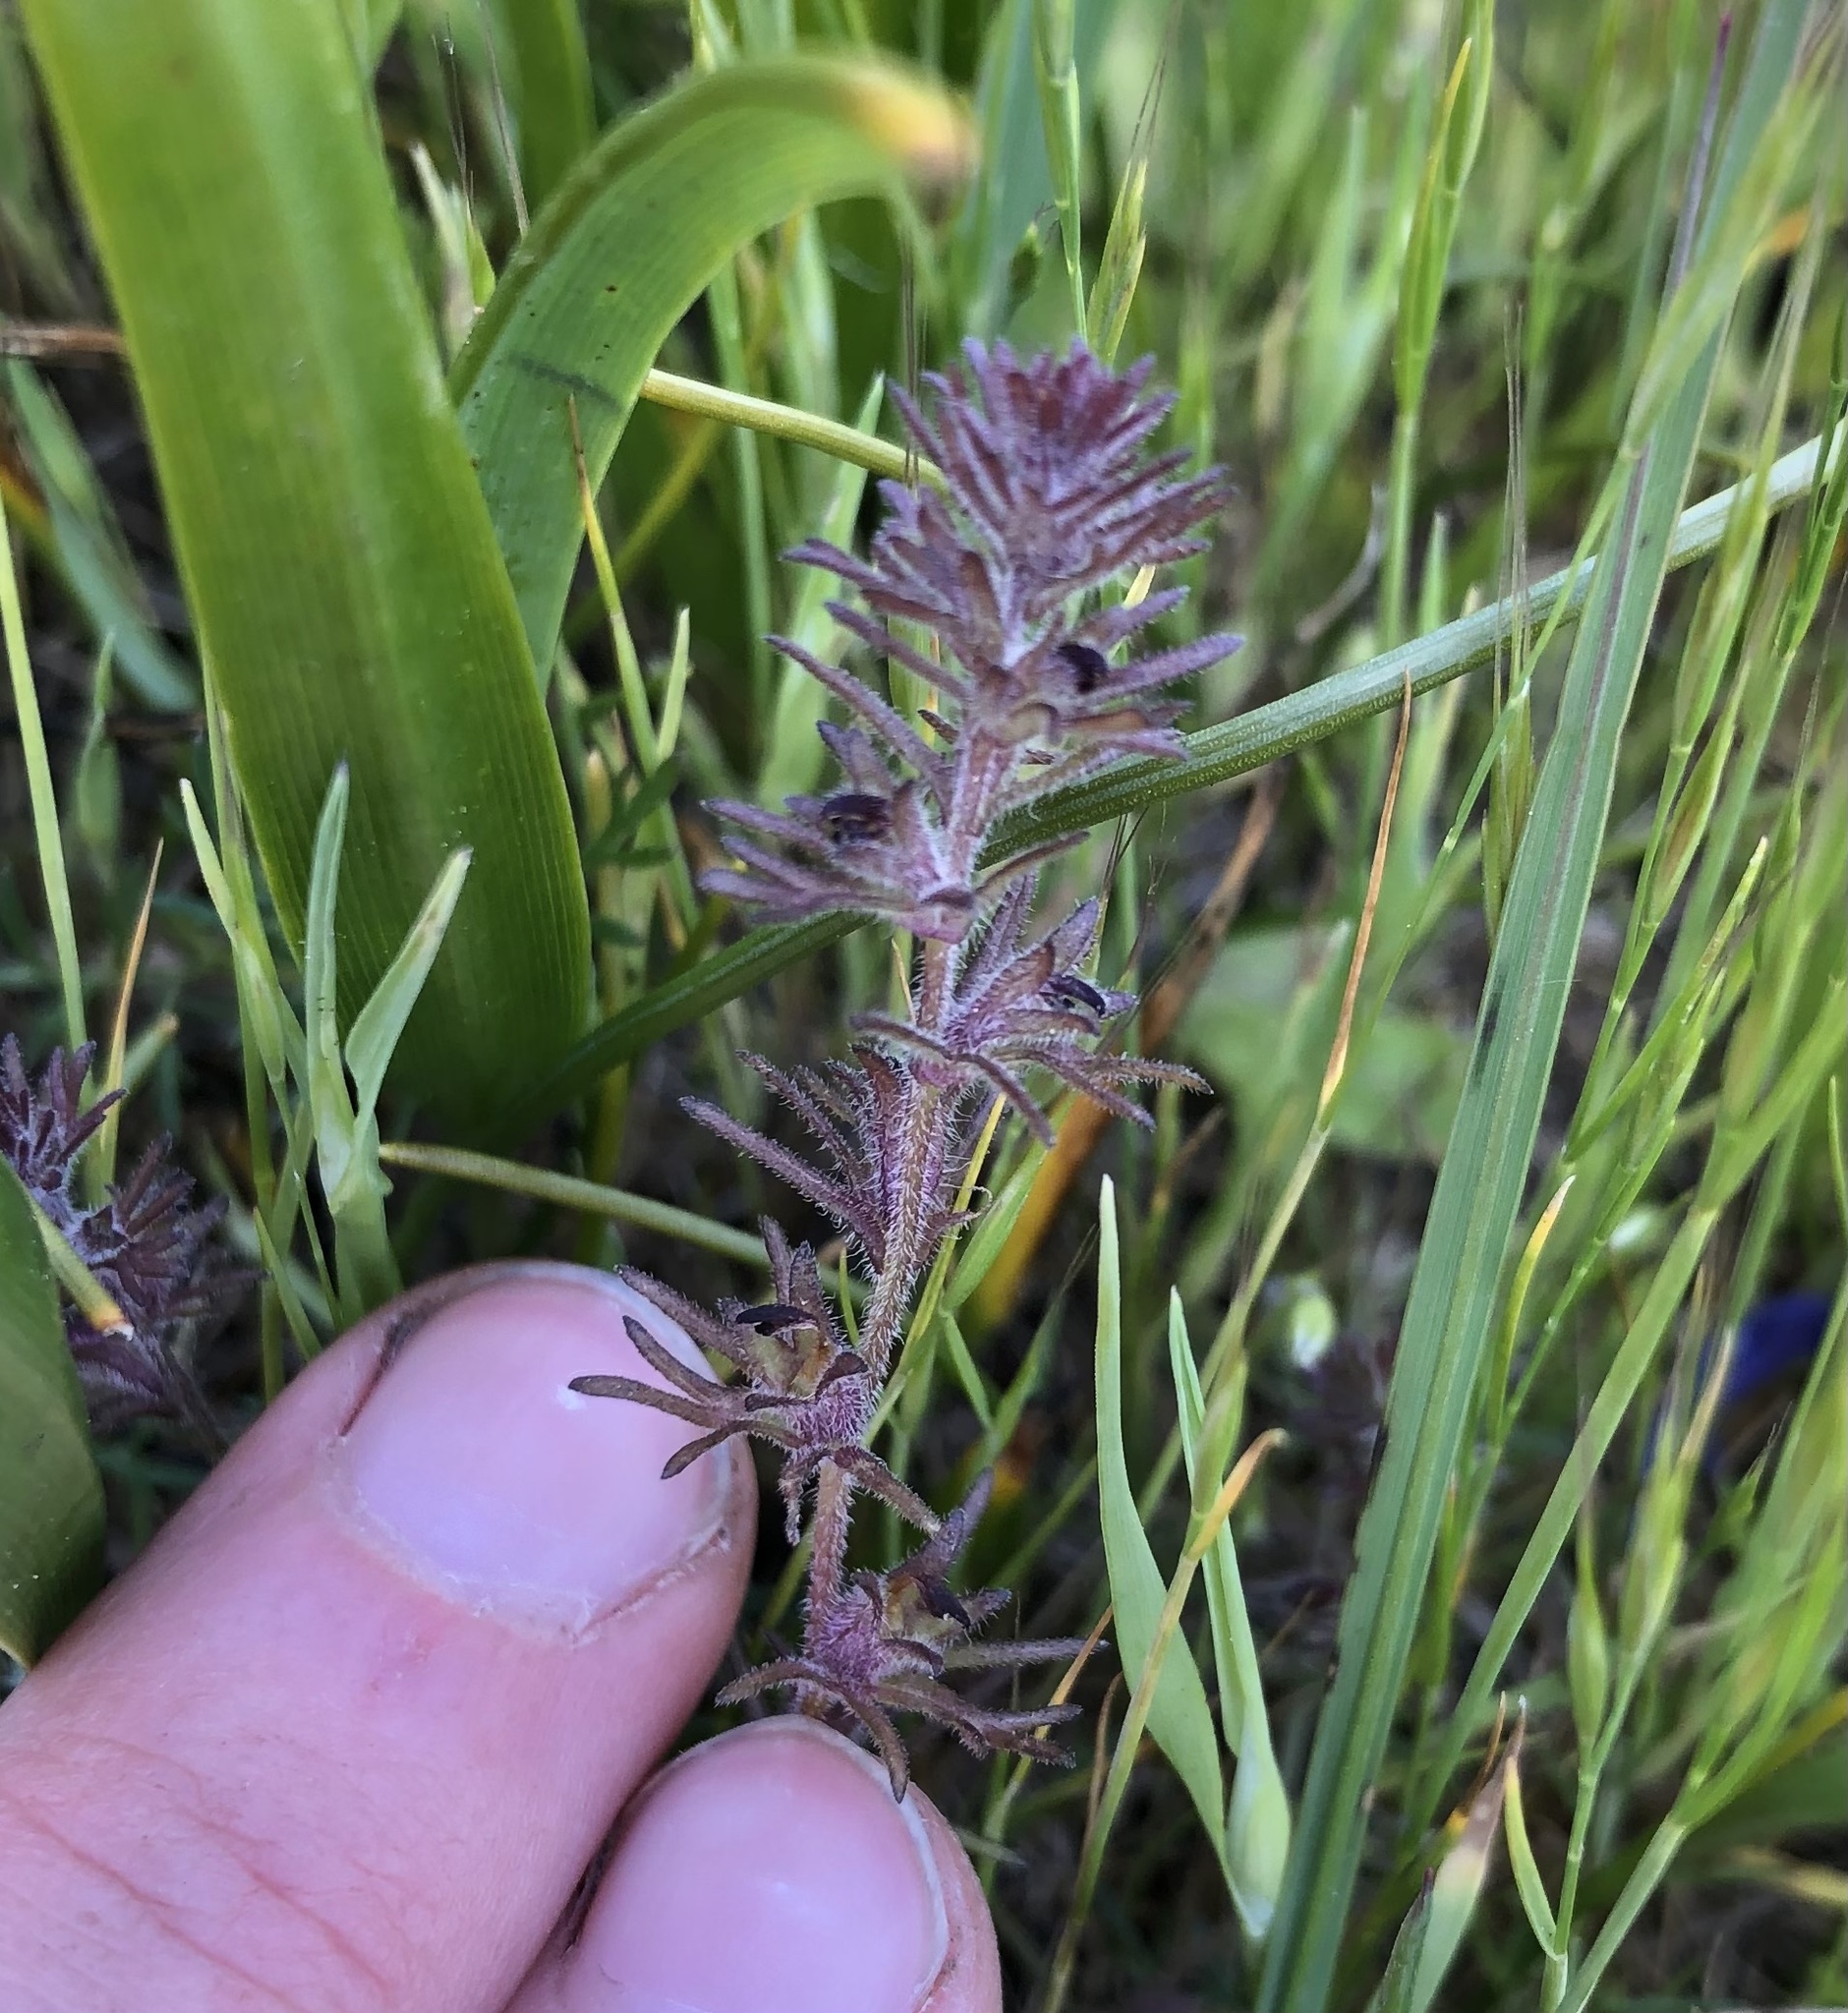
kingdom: Plantae
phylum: Tracheophyta
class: Magnoliopsida
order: Lamiales
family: Orobanchaceae
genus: Triphysaria
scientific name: Triphysaria pusilla
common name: Dwarf false owl-clover
